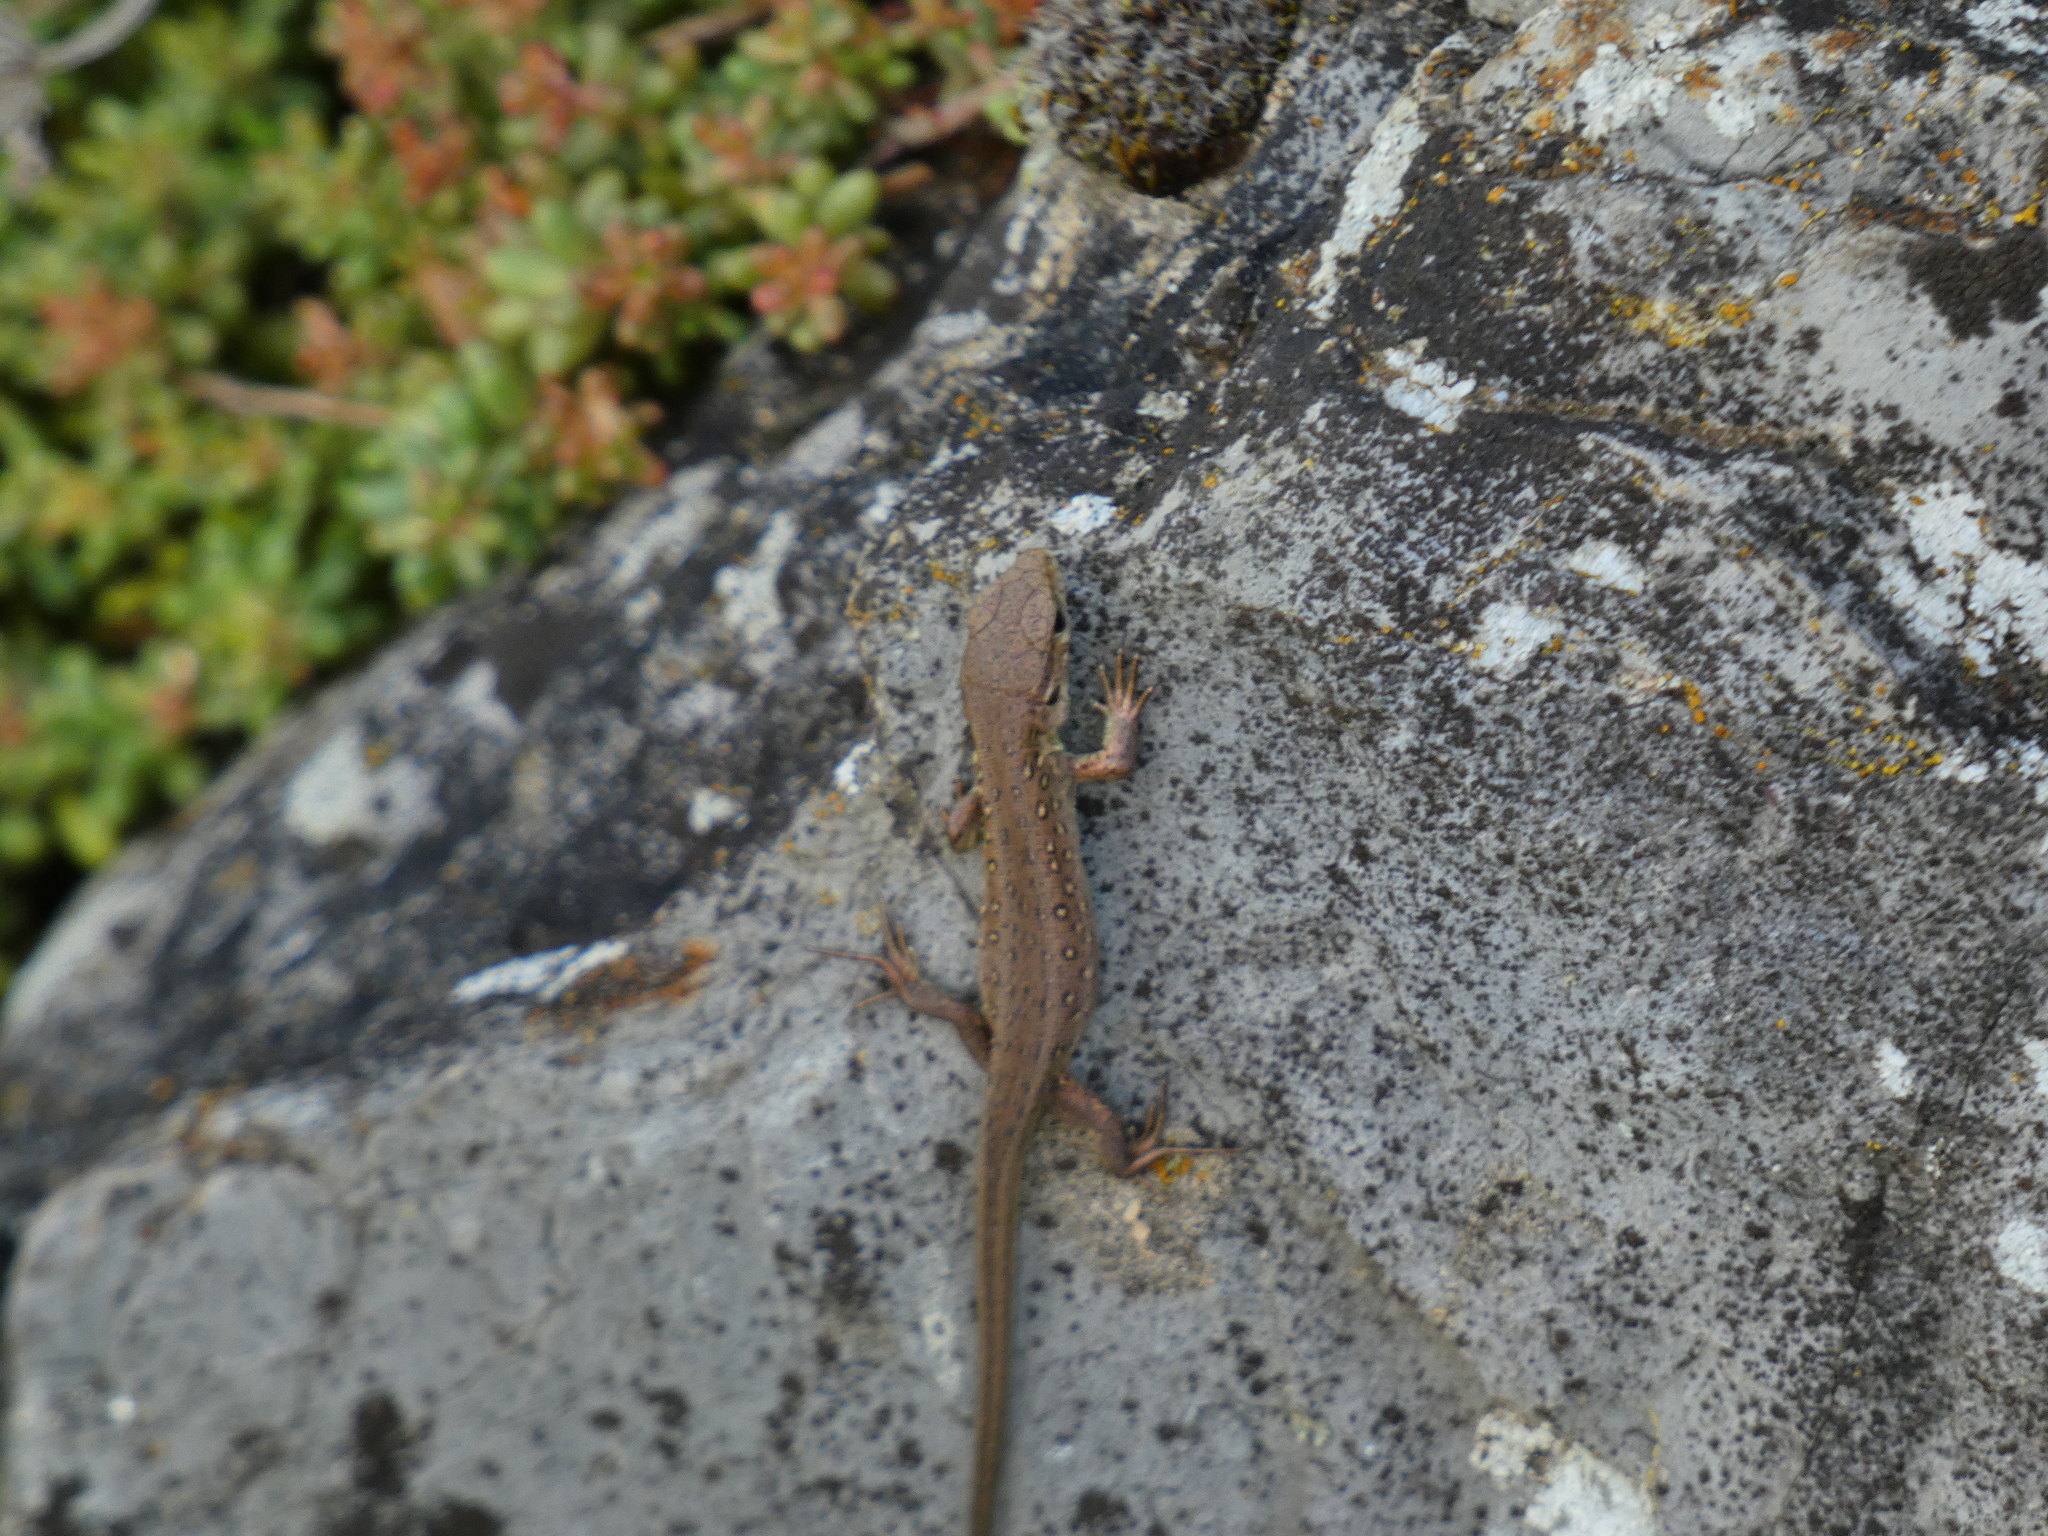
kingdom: Animalia
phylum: Chordata
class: Squamata
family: Lacertidae
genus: Lacerta
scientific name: Lacerta agilis
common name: Sand lizard
